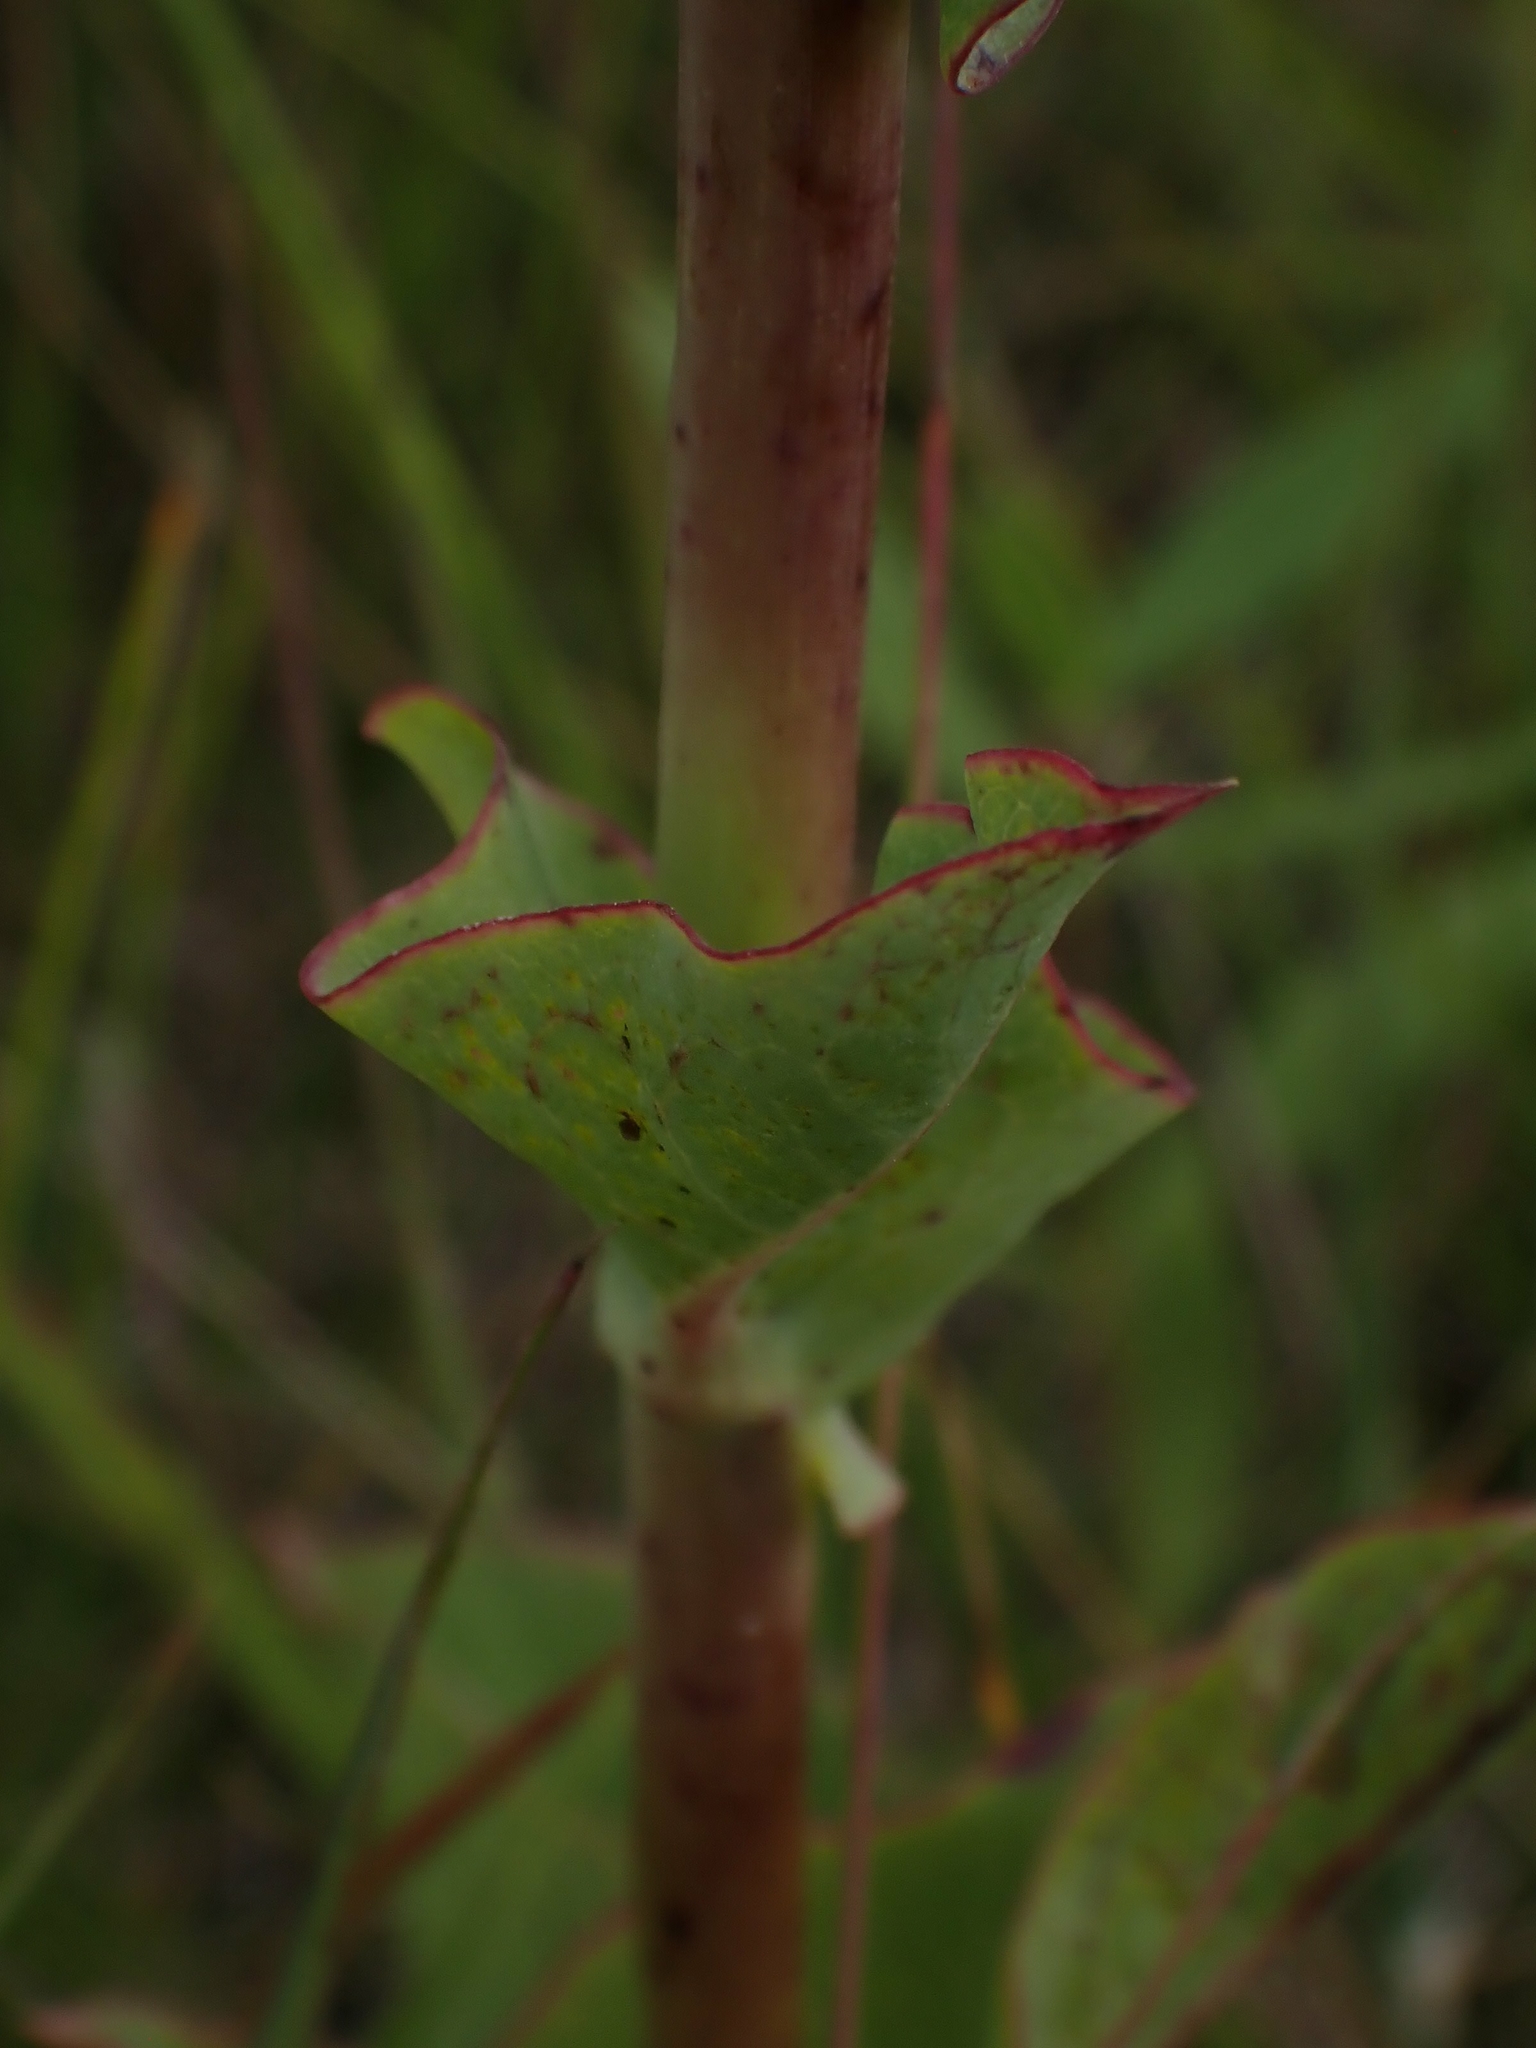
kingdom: Plantae
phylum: Tracheophyta
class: Magnoliopsida
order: Asterales
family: Asteraceae
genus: Nabalus
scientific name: Nabalus racemosus
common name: Glaucous white lettuce
